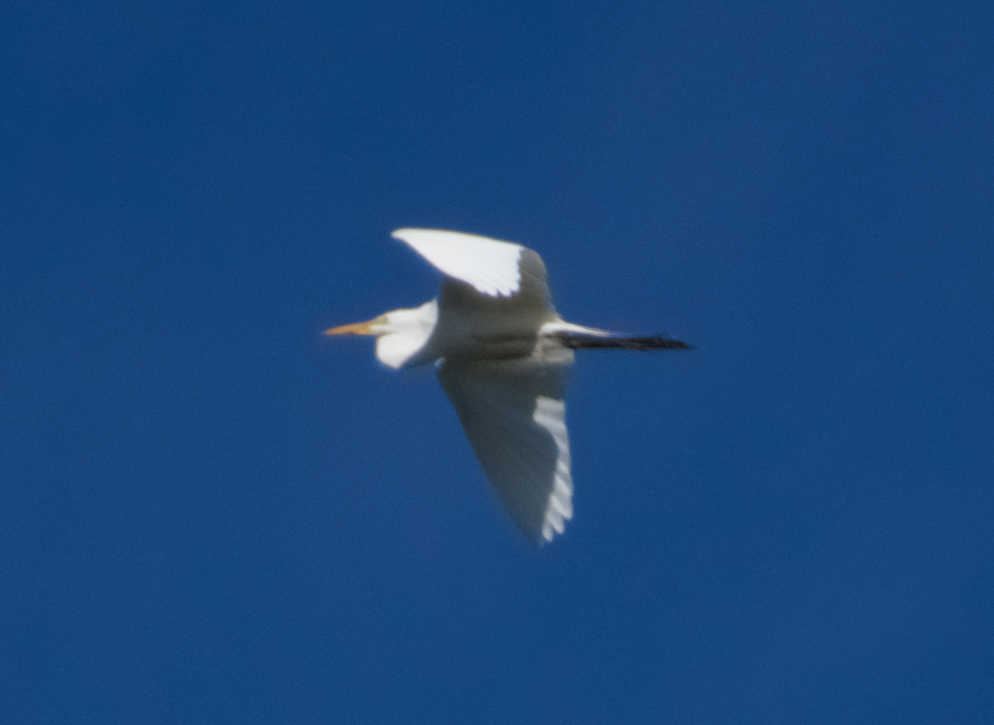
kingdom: Animalia
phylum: Chordata
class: Aves
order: Pelecaniformes
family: Ardeidae
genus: Ardea
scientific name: Ardea alba
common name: Great egret
